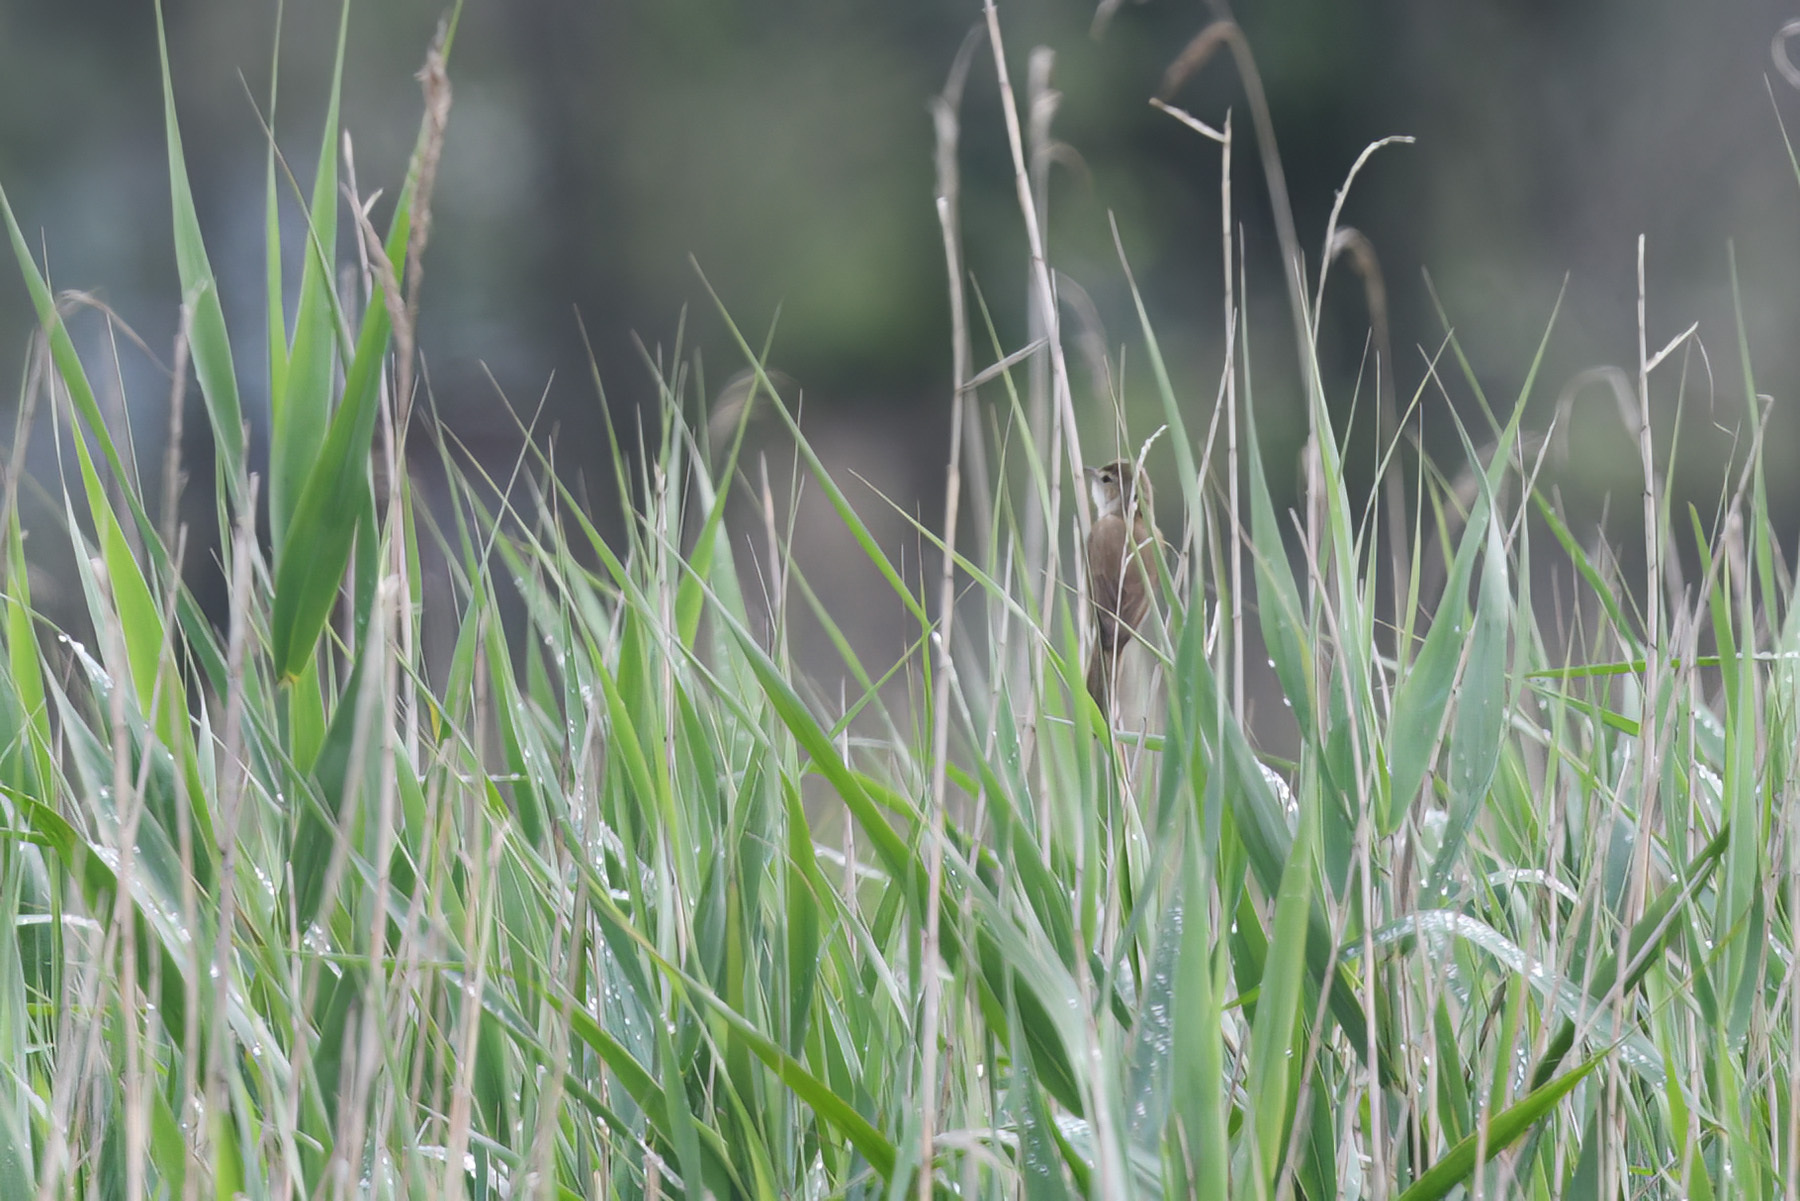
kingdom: Animalia
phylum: Chordata
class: Aves
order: Passeriformes
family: Acrocephalidae
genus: Acrocephalus
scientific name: Acrocephalus australis
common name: Australian reed warbler
